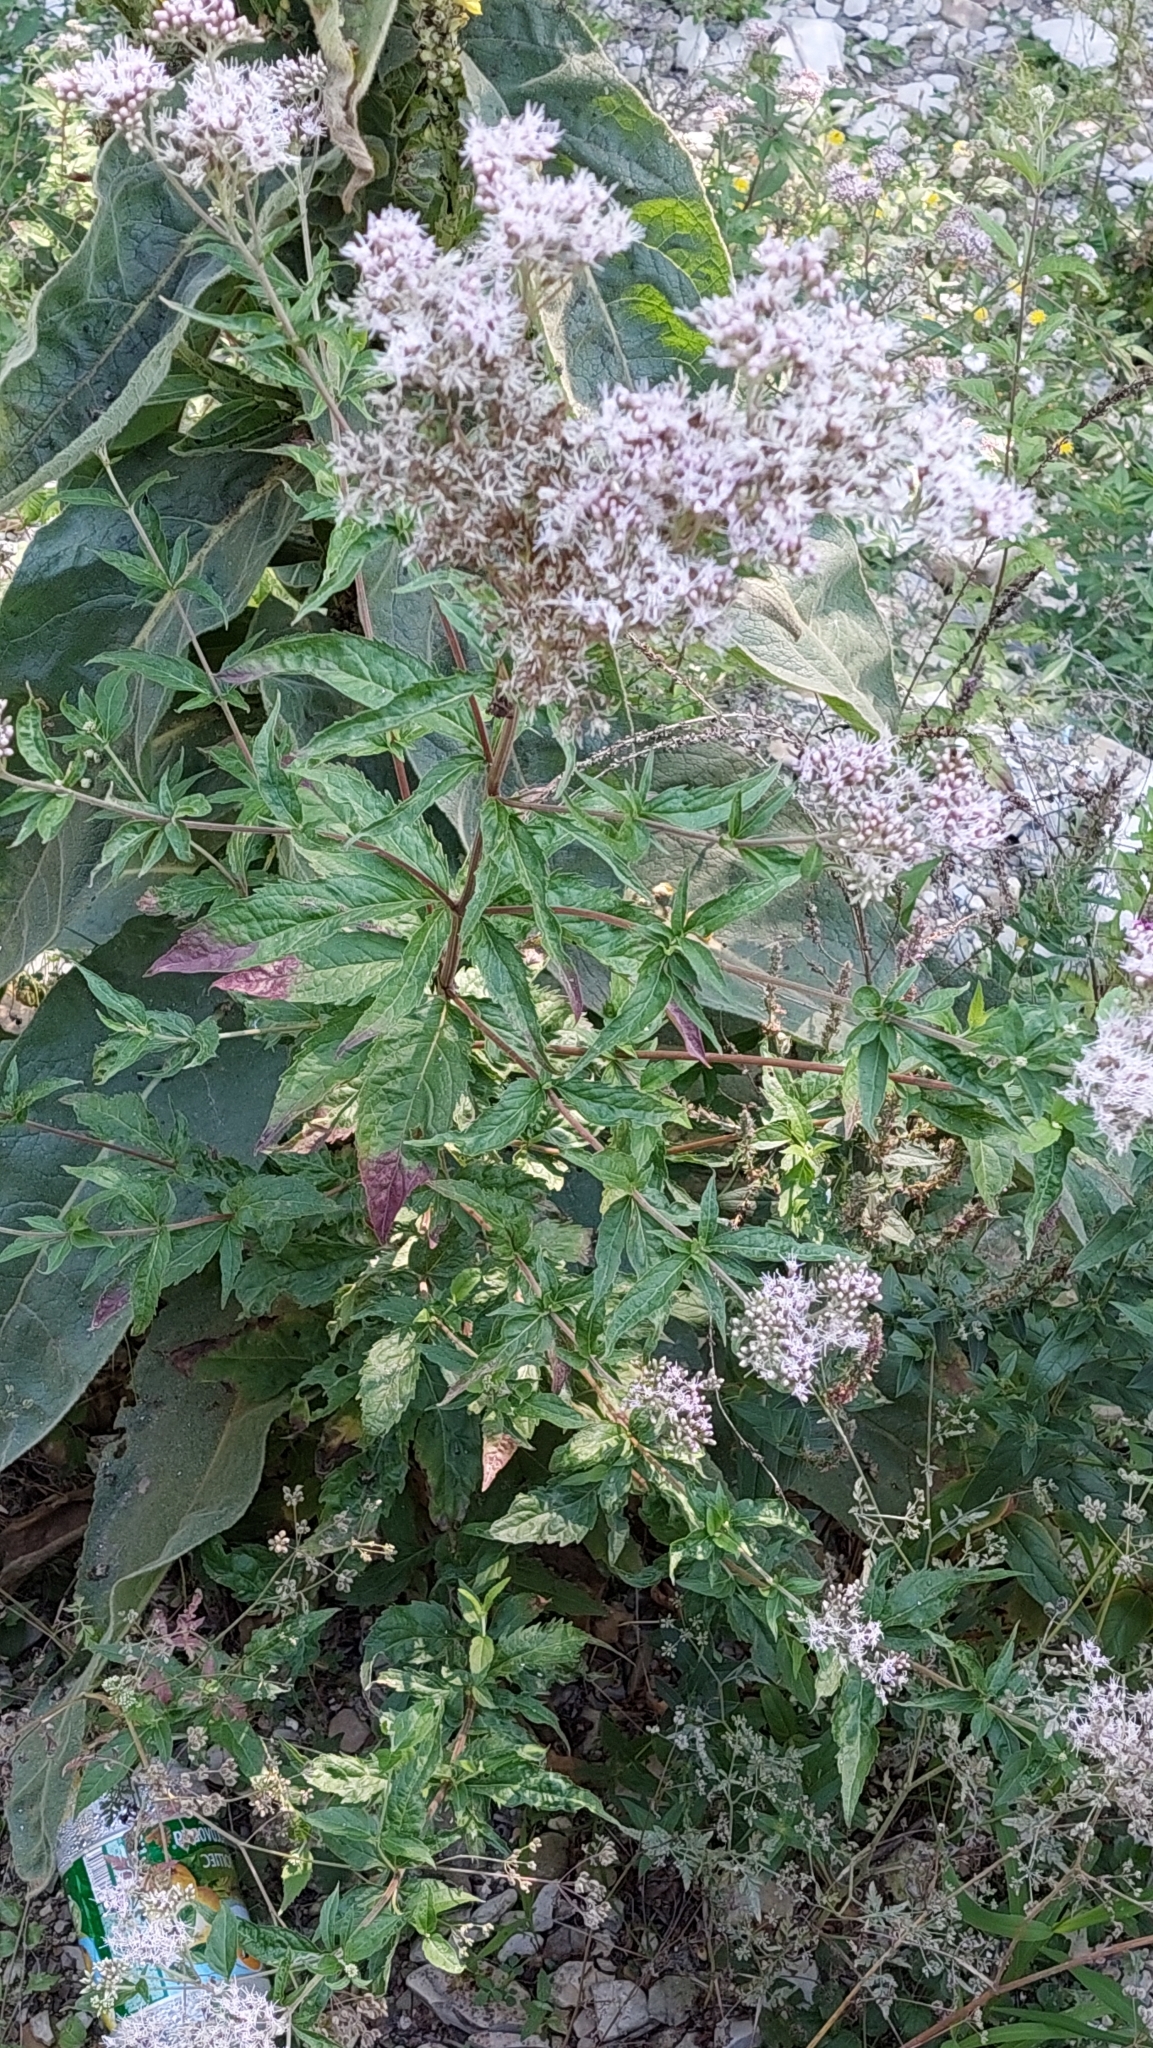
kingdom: Plantae
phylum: Tracheophyta
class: Magnoliopsida
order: Asterales
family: Asteraceae
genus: Eupatorium
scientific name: Eupatorium cannabinum
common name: Hemp-agrimony
